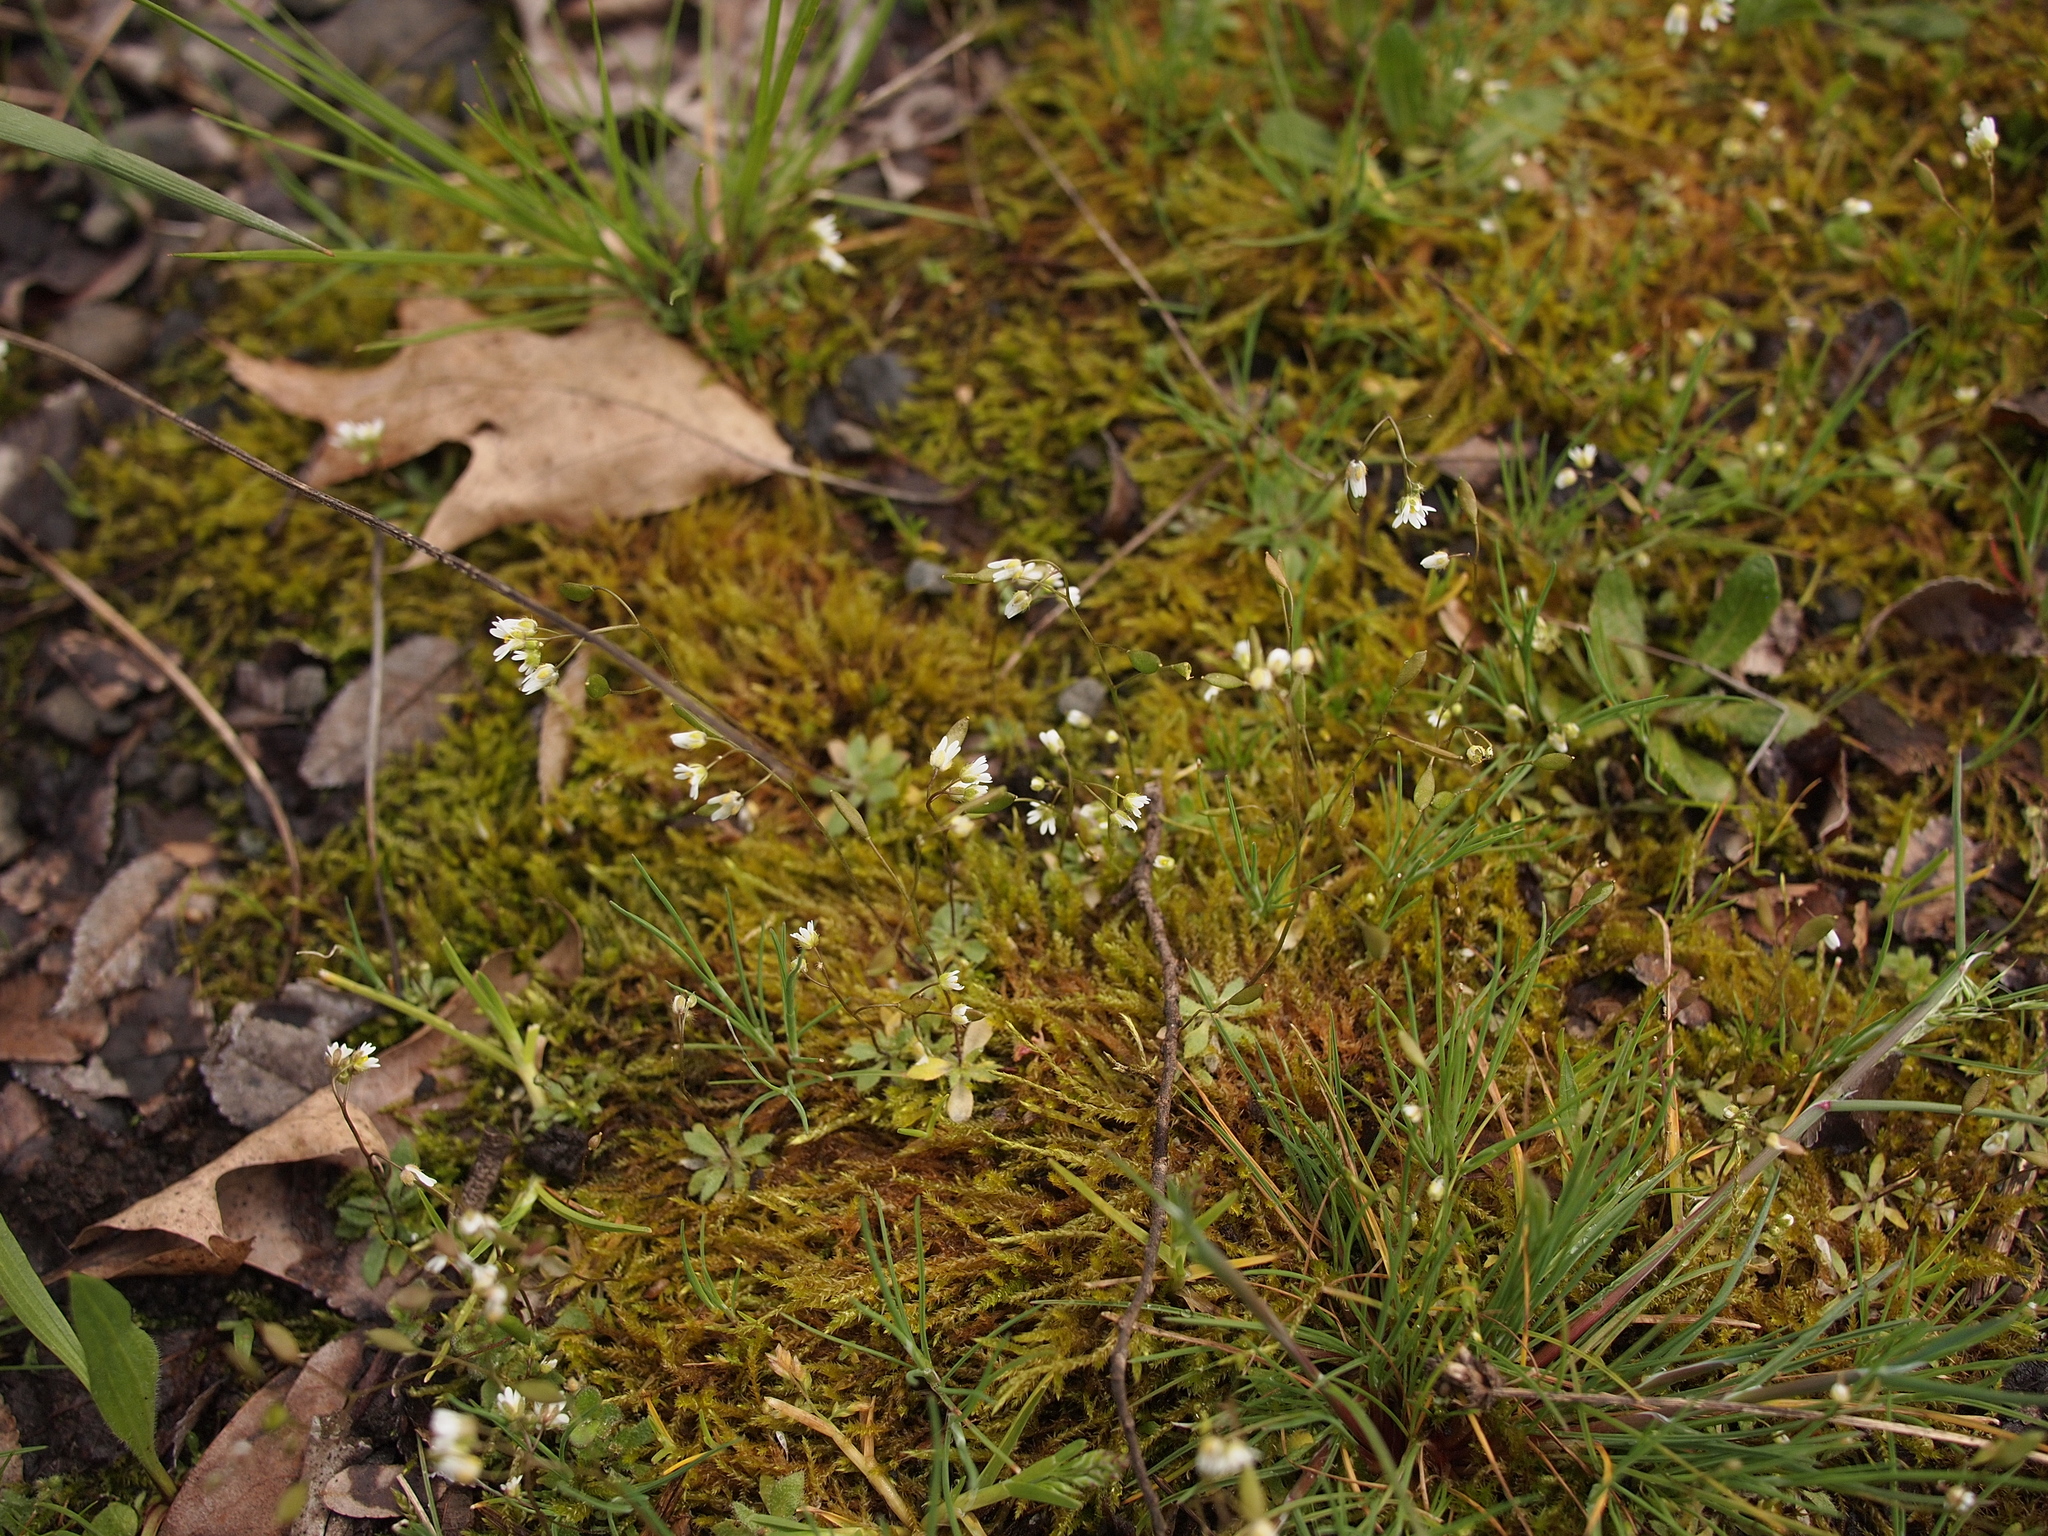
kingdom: Plantae
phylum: Tracheophyta
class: Magnoliopsida
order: Brassicales
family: Brassicaceae
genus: Draba
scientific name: Draba verna
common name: Spring draba
